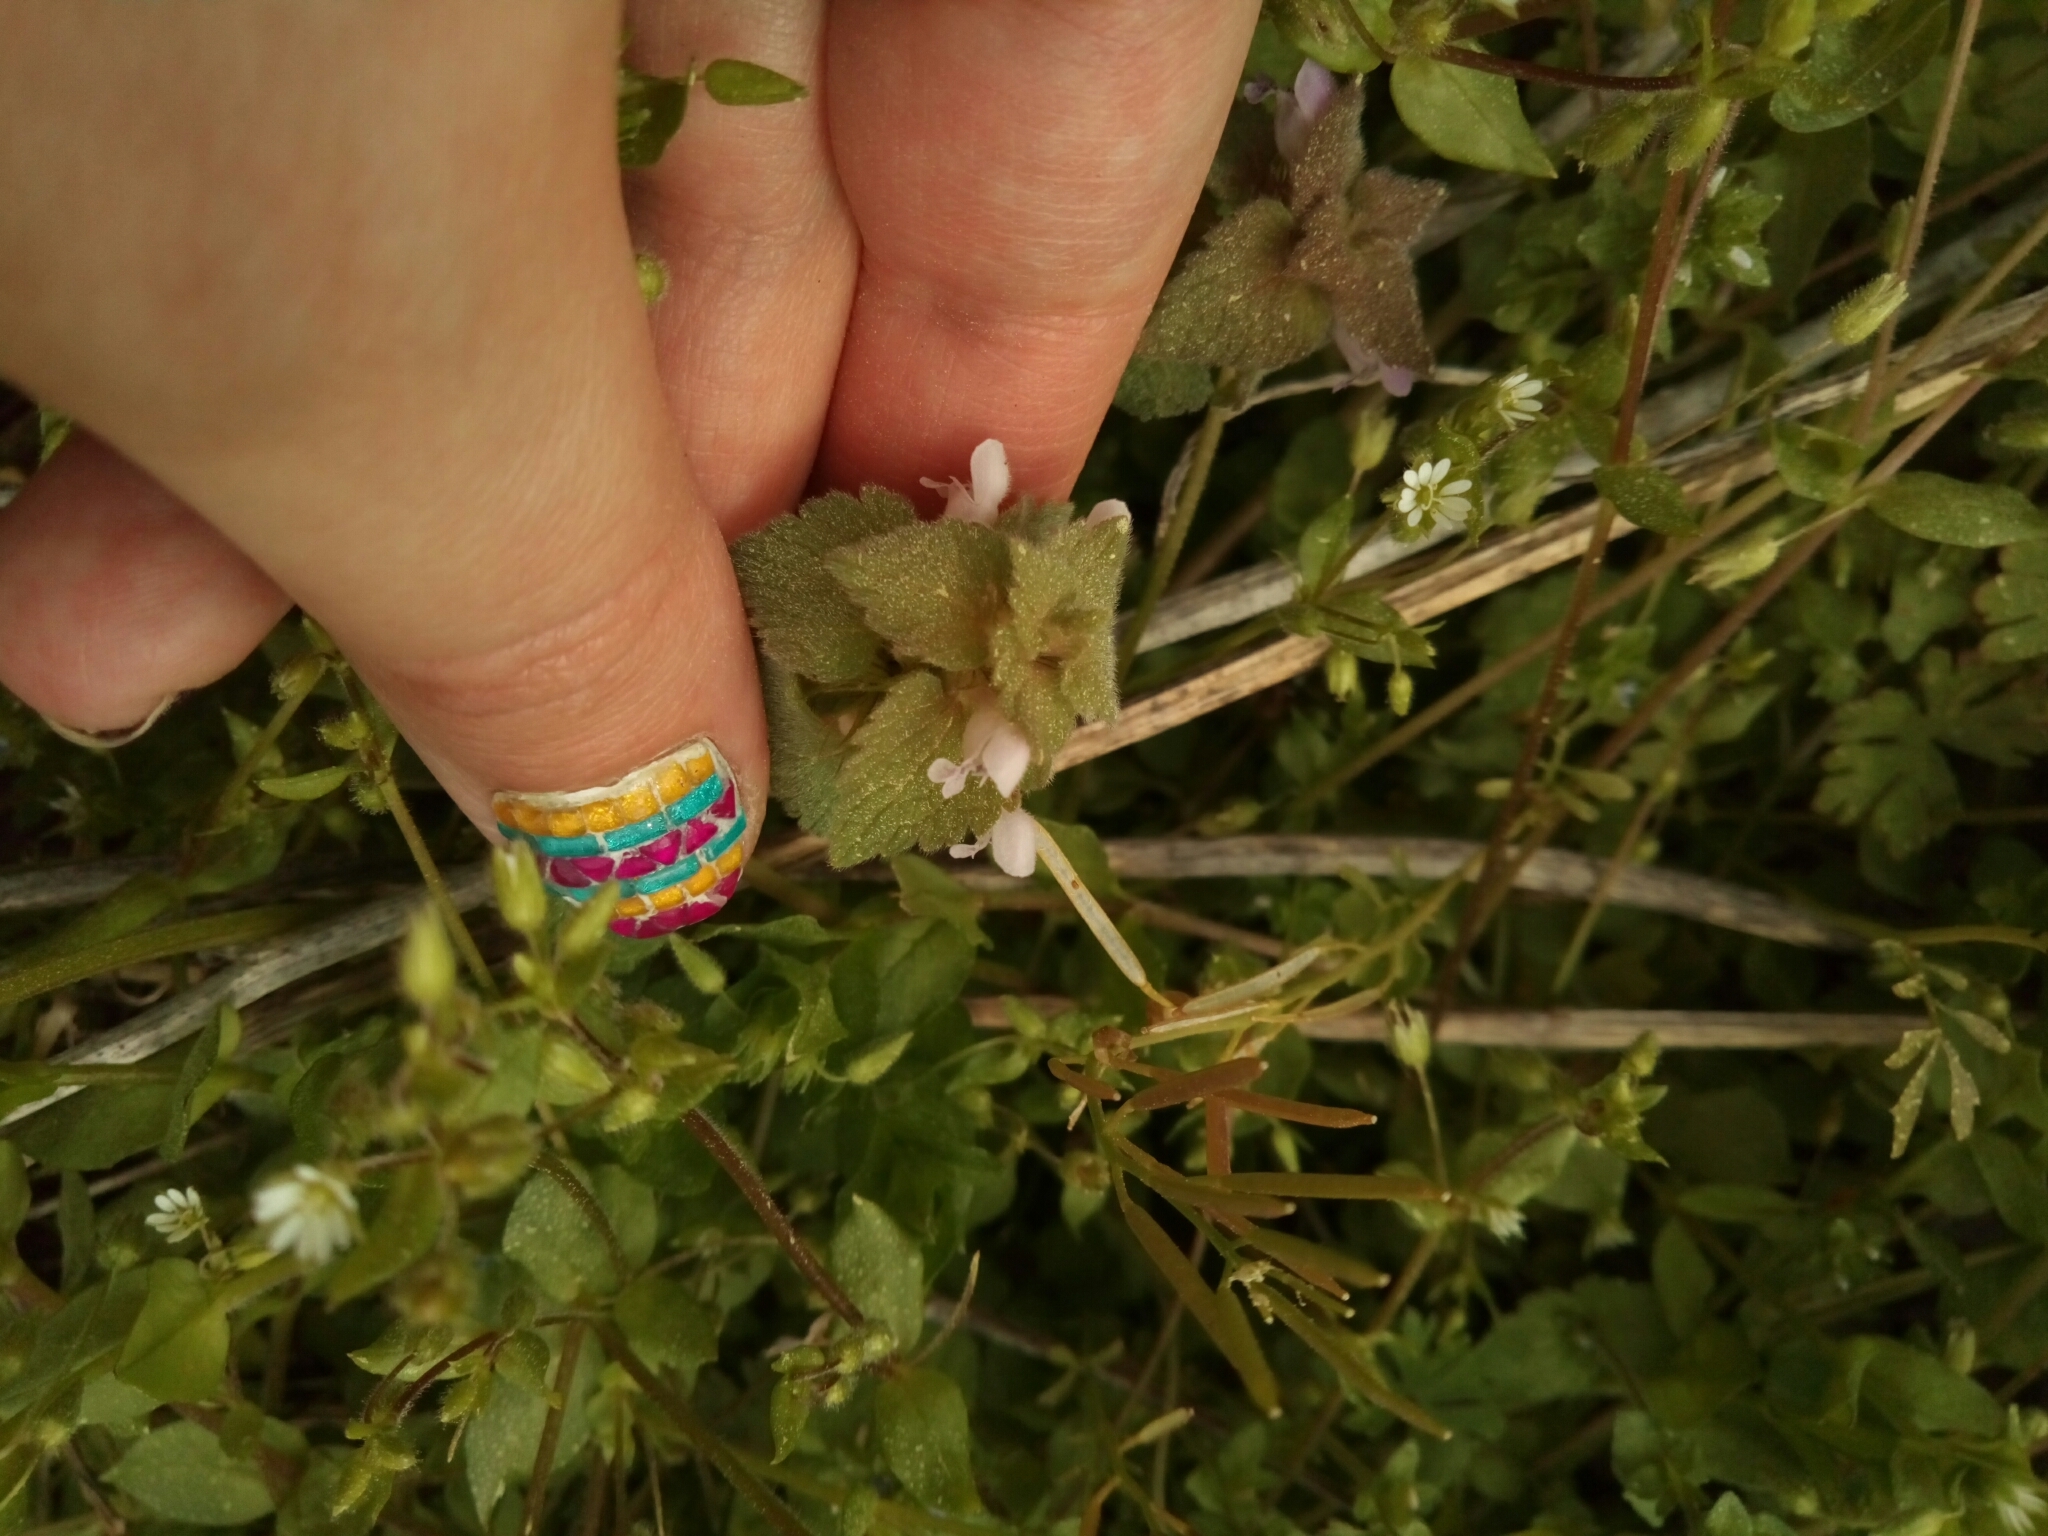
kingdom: Plantae
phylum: Tracheophyta
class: Magnoliopsida
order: Lamiales
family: Lamiaceae
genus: Lamium
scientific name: Lamium purpureum
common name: Red dead-nettle
